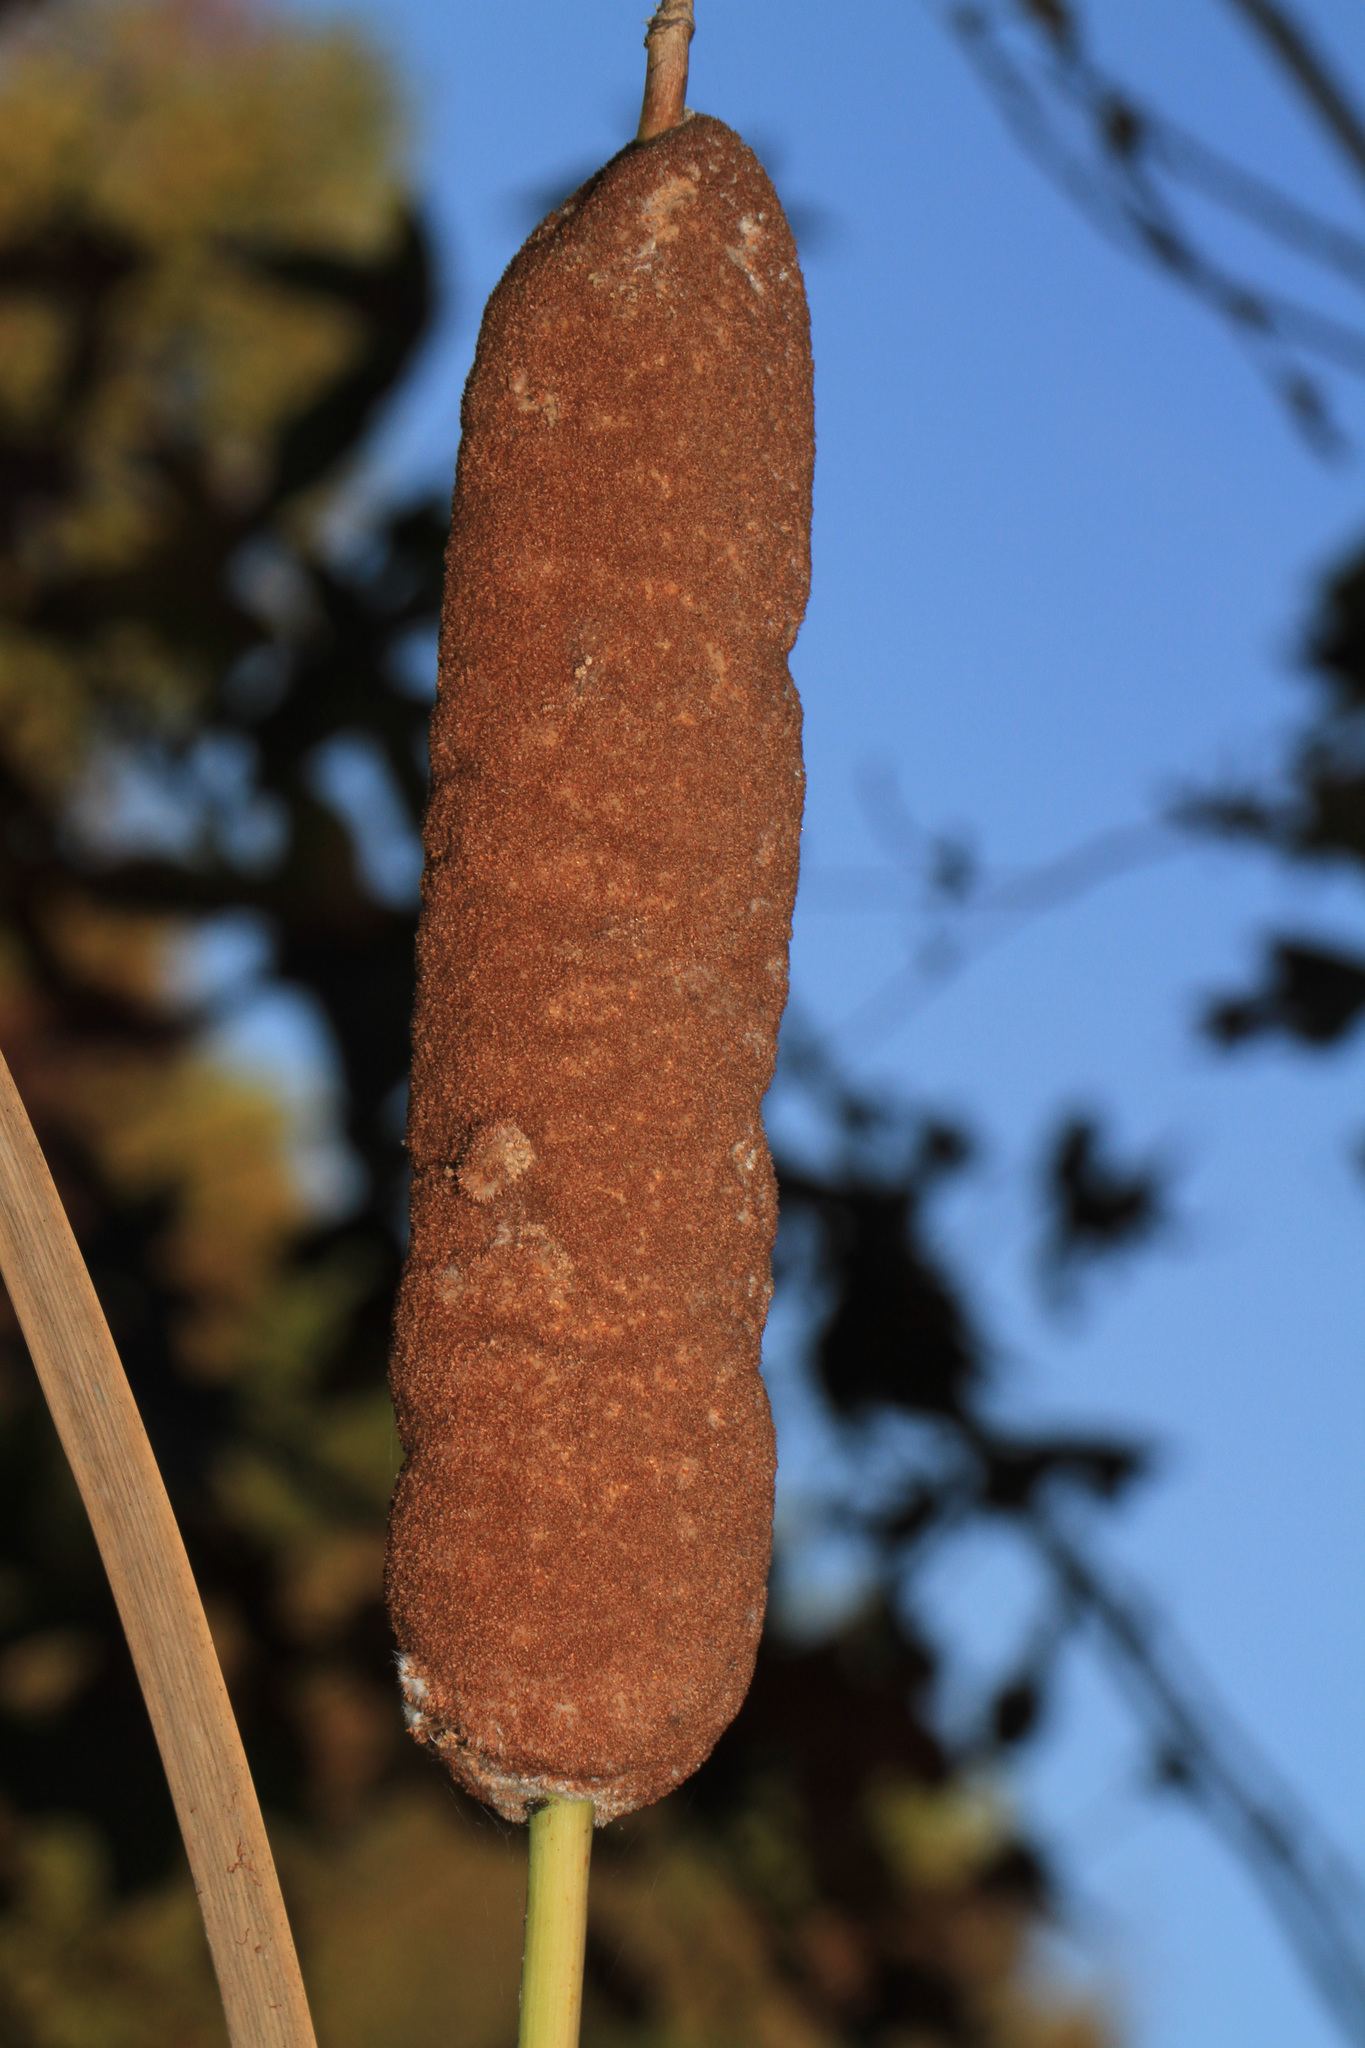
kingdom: Plantae
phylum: Tracheophyta
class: Liliopsida
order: Poales
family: Typhaceae
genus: Typha
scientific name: Typha latifolia
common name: Broadleaf cattail
